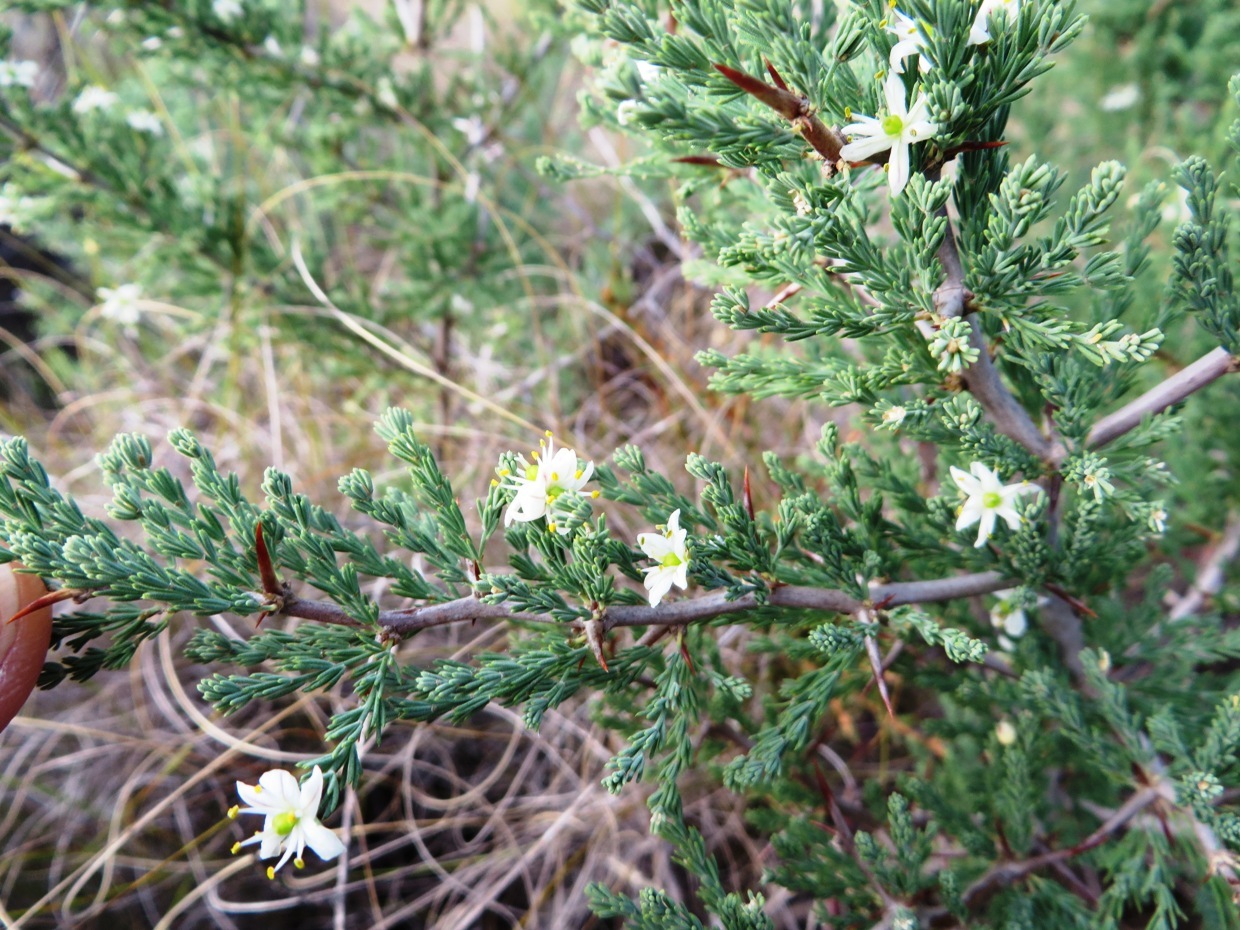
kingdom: Plantae
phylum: Tracheophyta
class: Liliopsida
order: Asparagales
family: Asparagaceae
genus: Asparagus
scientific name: Asparagus capensis
